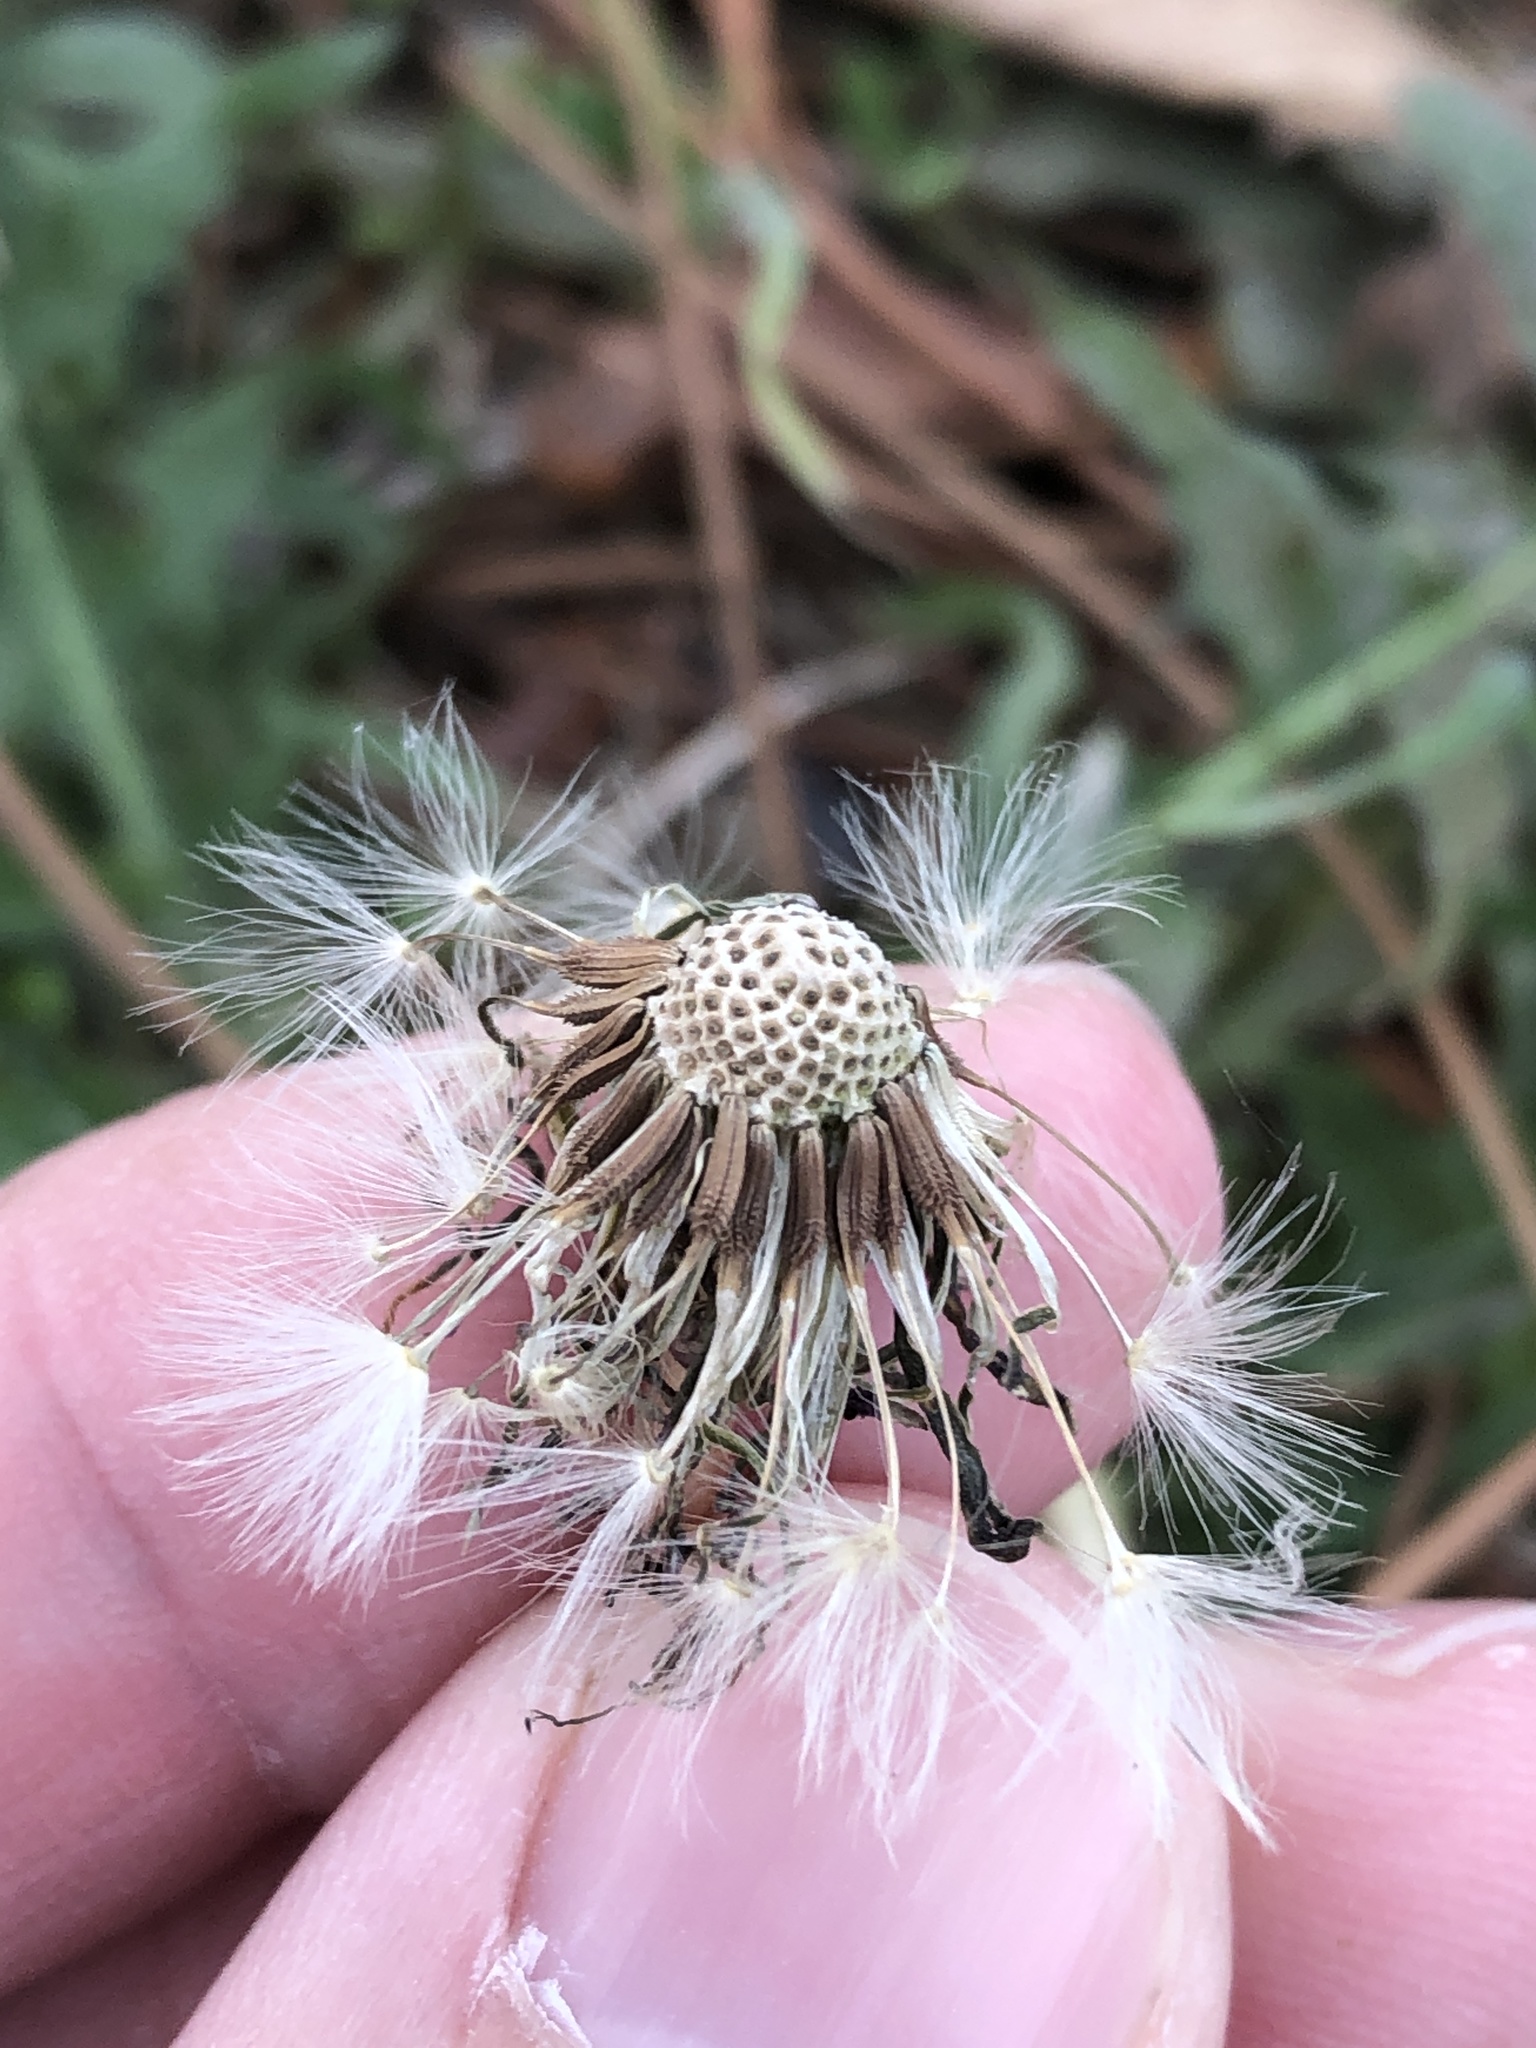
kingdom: Plantae
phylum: Tracheophyta
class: Magnoliopsida
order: Asterales
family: Asteraceae
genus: Taraxacum
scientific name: Taraxacum officinale
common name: Common dandelion
